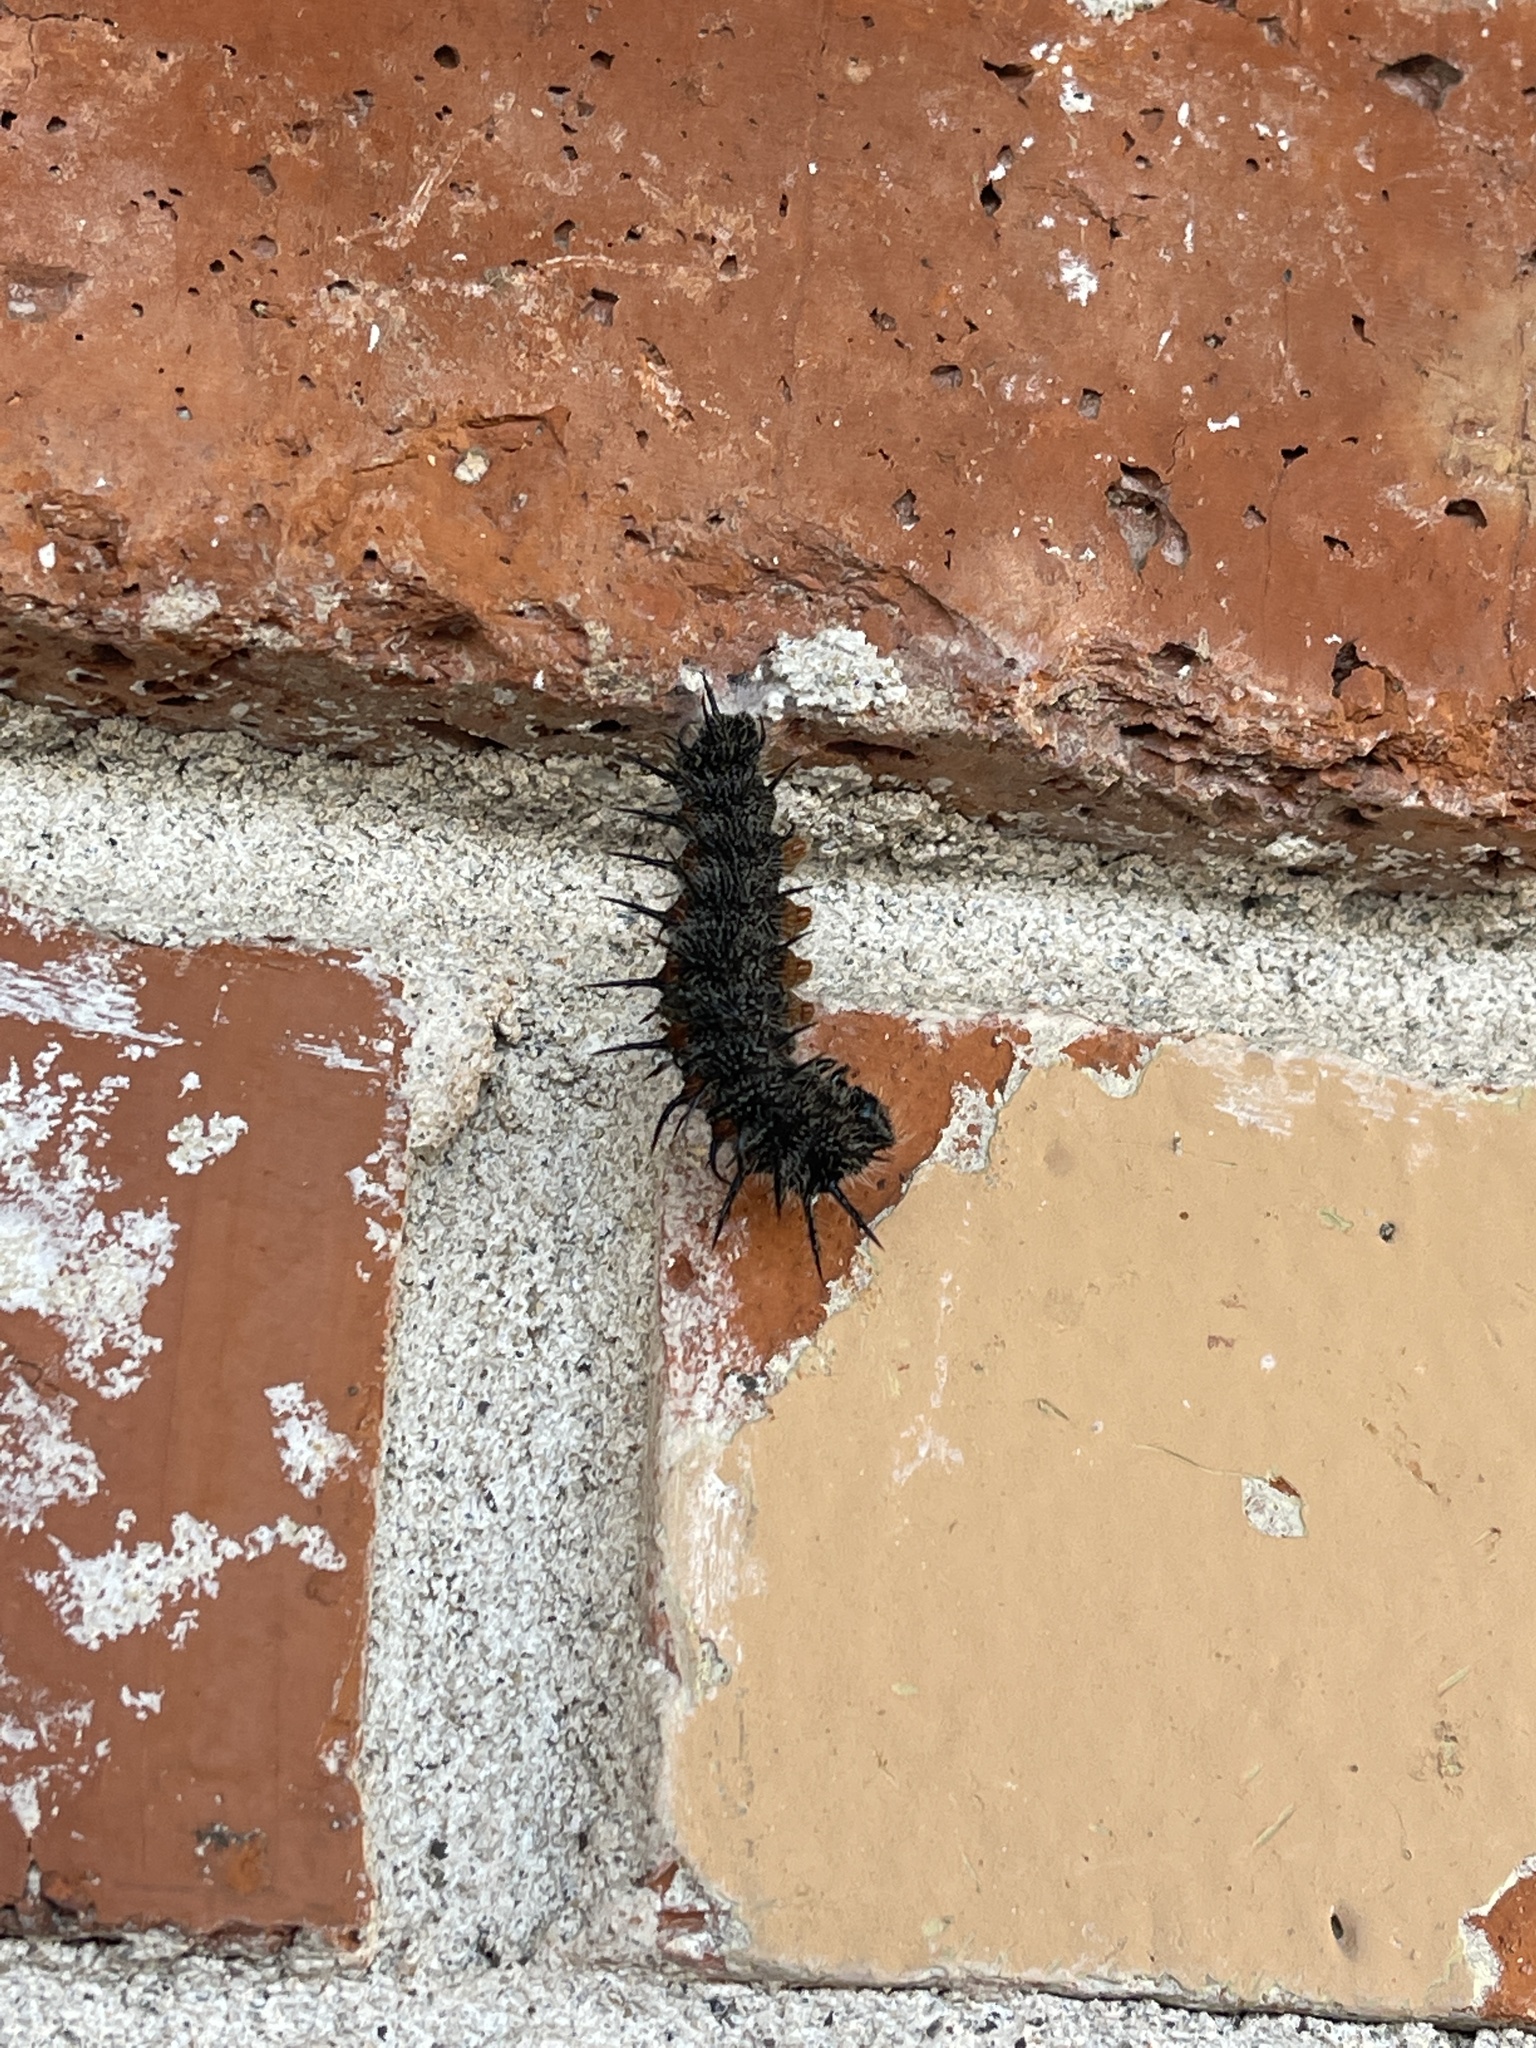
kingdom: Animalia
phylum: Arthropoda
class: Insecta
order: Lepidoptera
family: Nymphalidae
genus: Nymphalis
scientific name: Nymphalis antiopa
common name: Camberwell beauty
